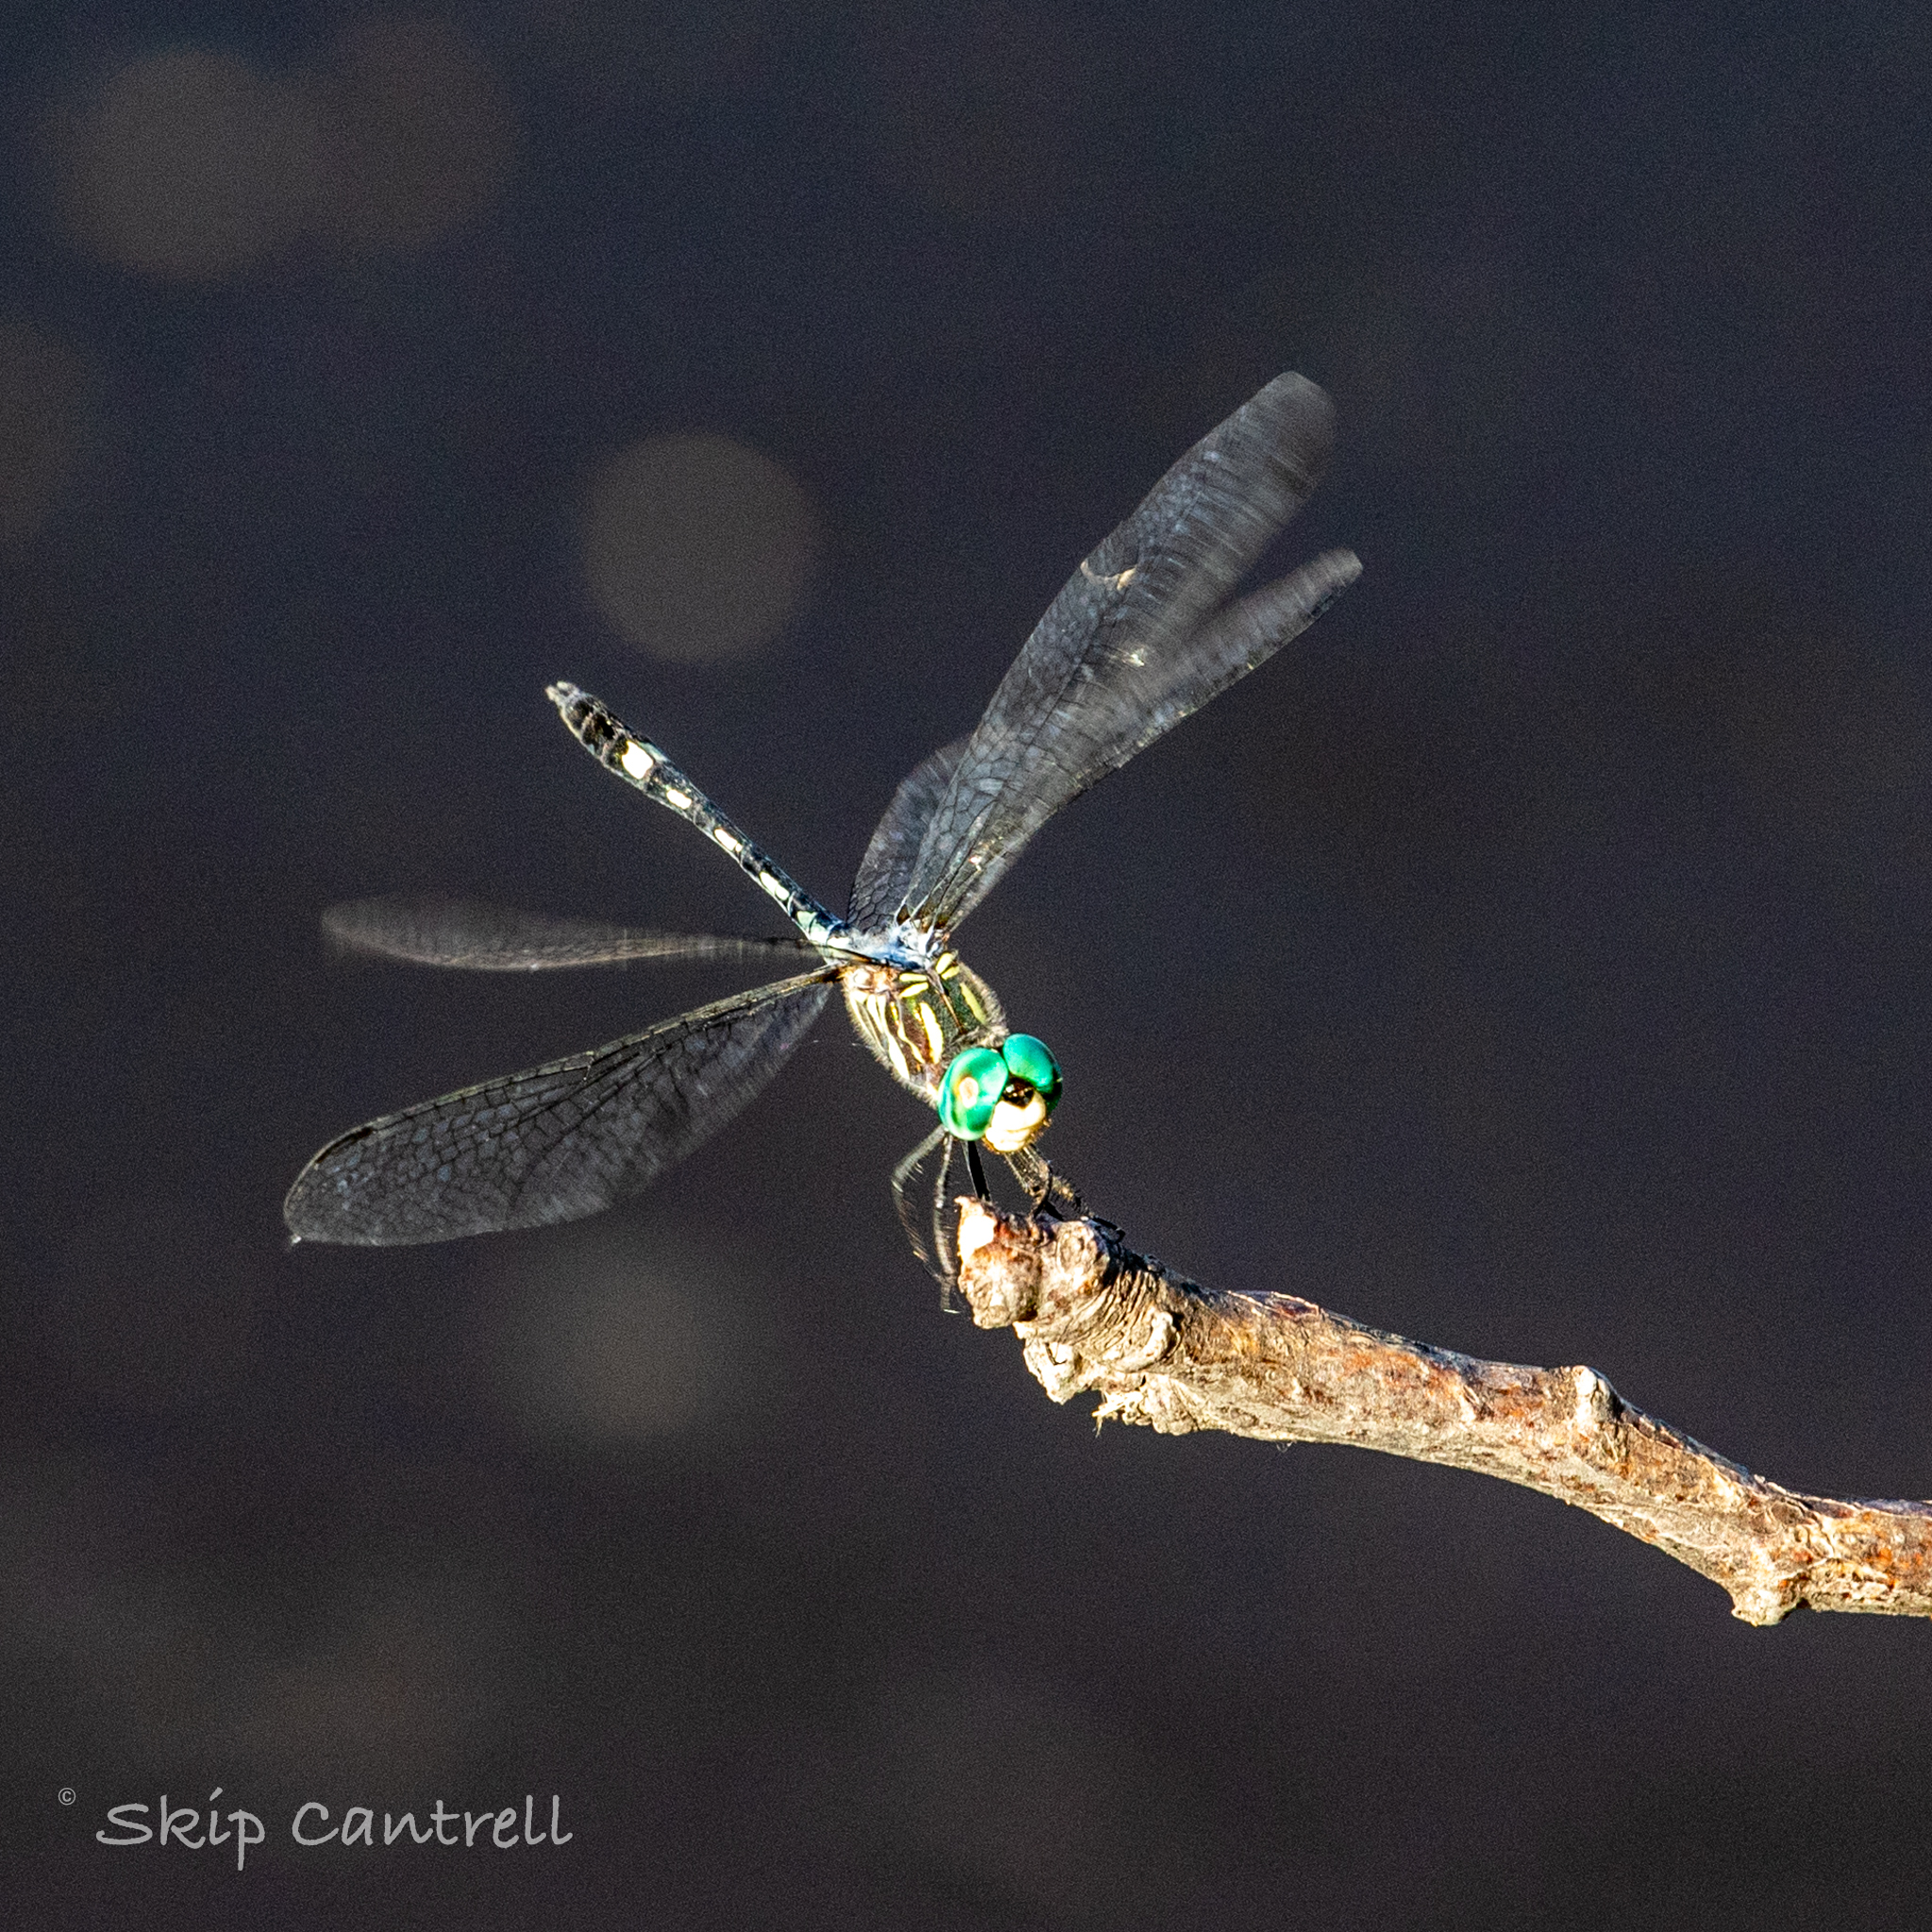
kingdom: Animalia
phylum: Arthropoda
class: Insecta
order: Odonata
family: Libellulidae
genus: Micrathyria
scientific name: Micrathyria hagenii
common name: Thornbush dasher
